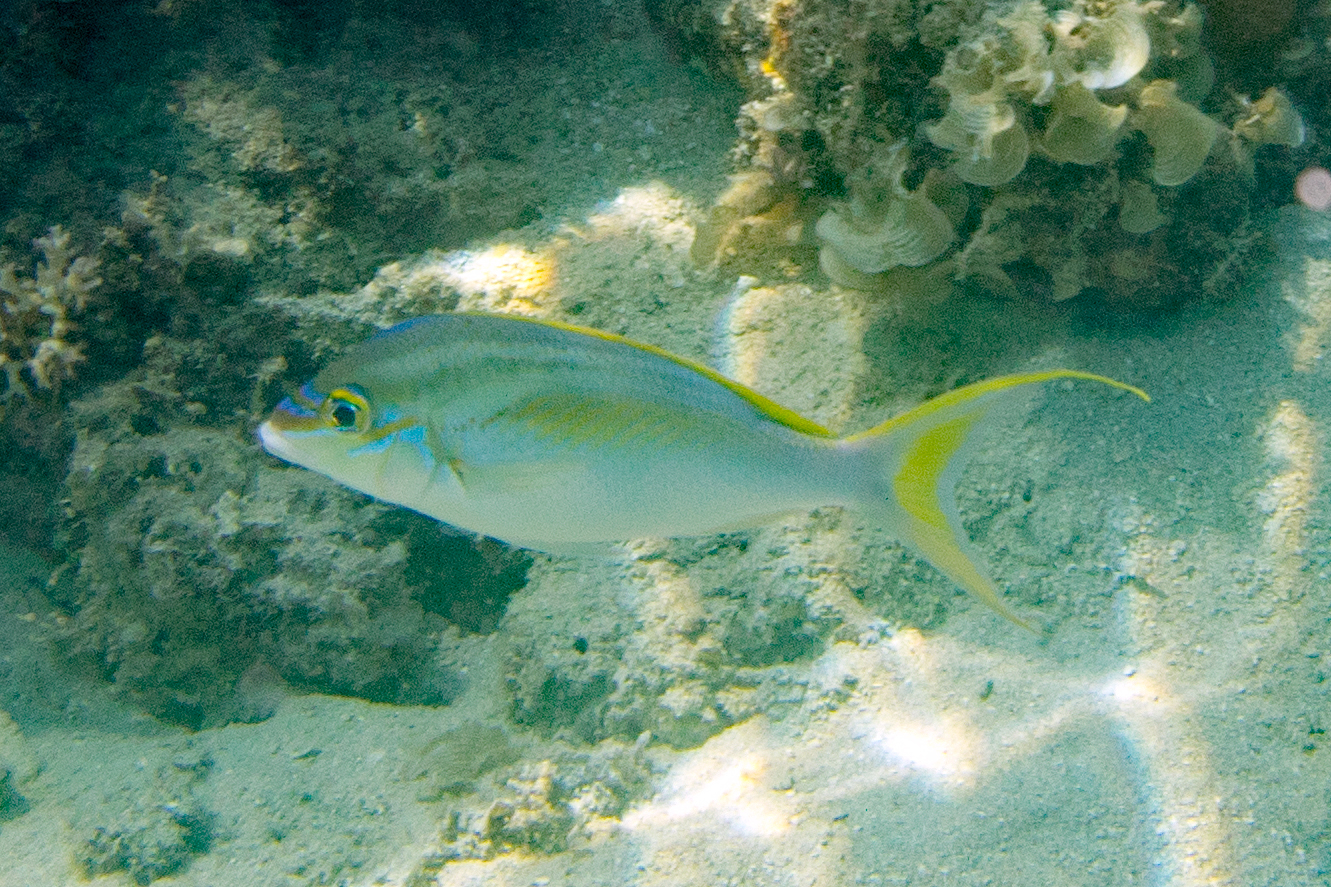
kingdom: Animalia
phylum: Chordata
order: Perciformes
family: Nemipteridae
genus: Scolopsis
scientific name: Scolopsis monogramma
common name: Monogrammed monocle bream
